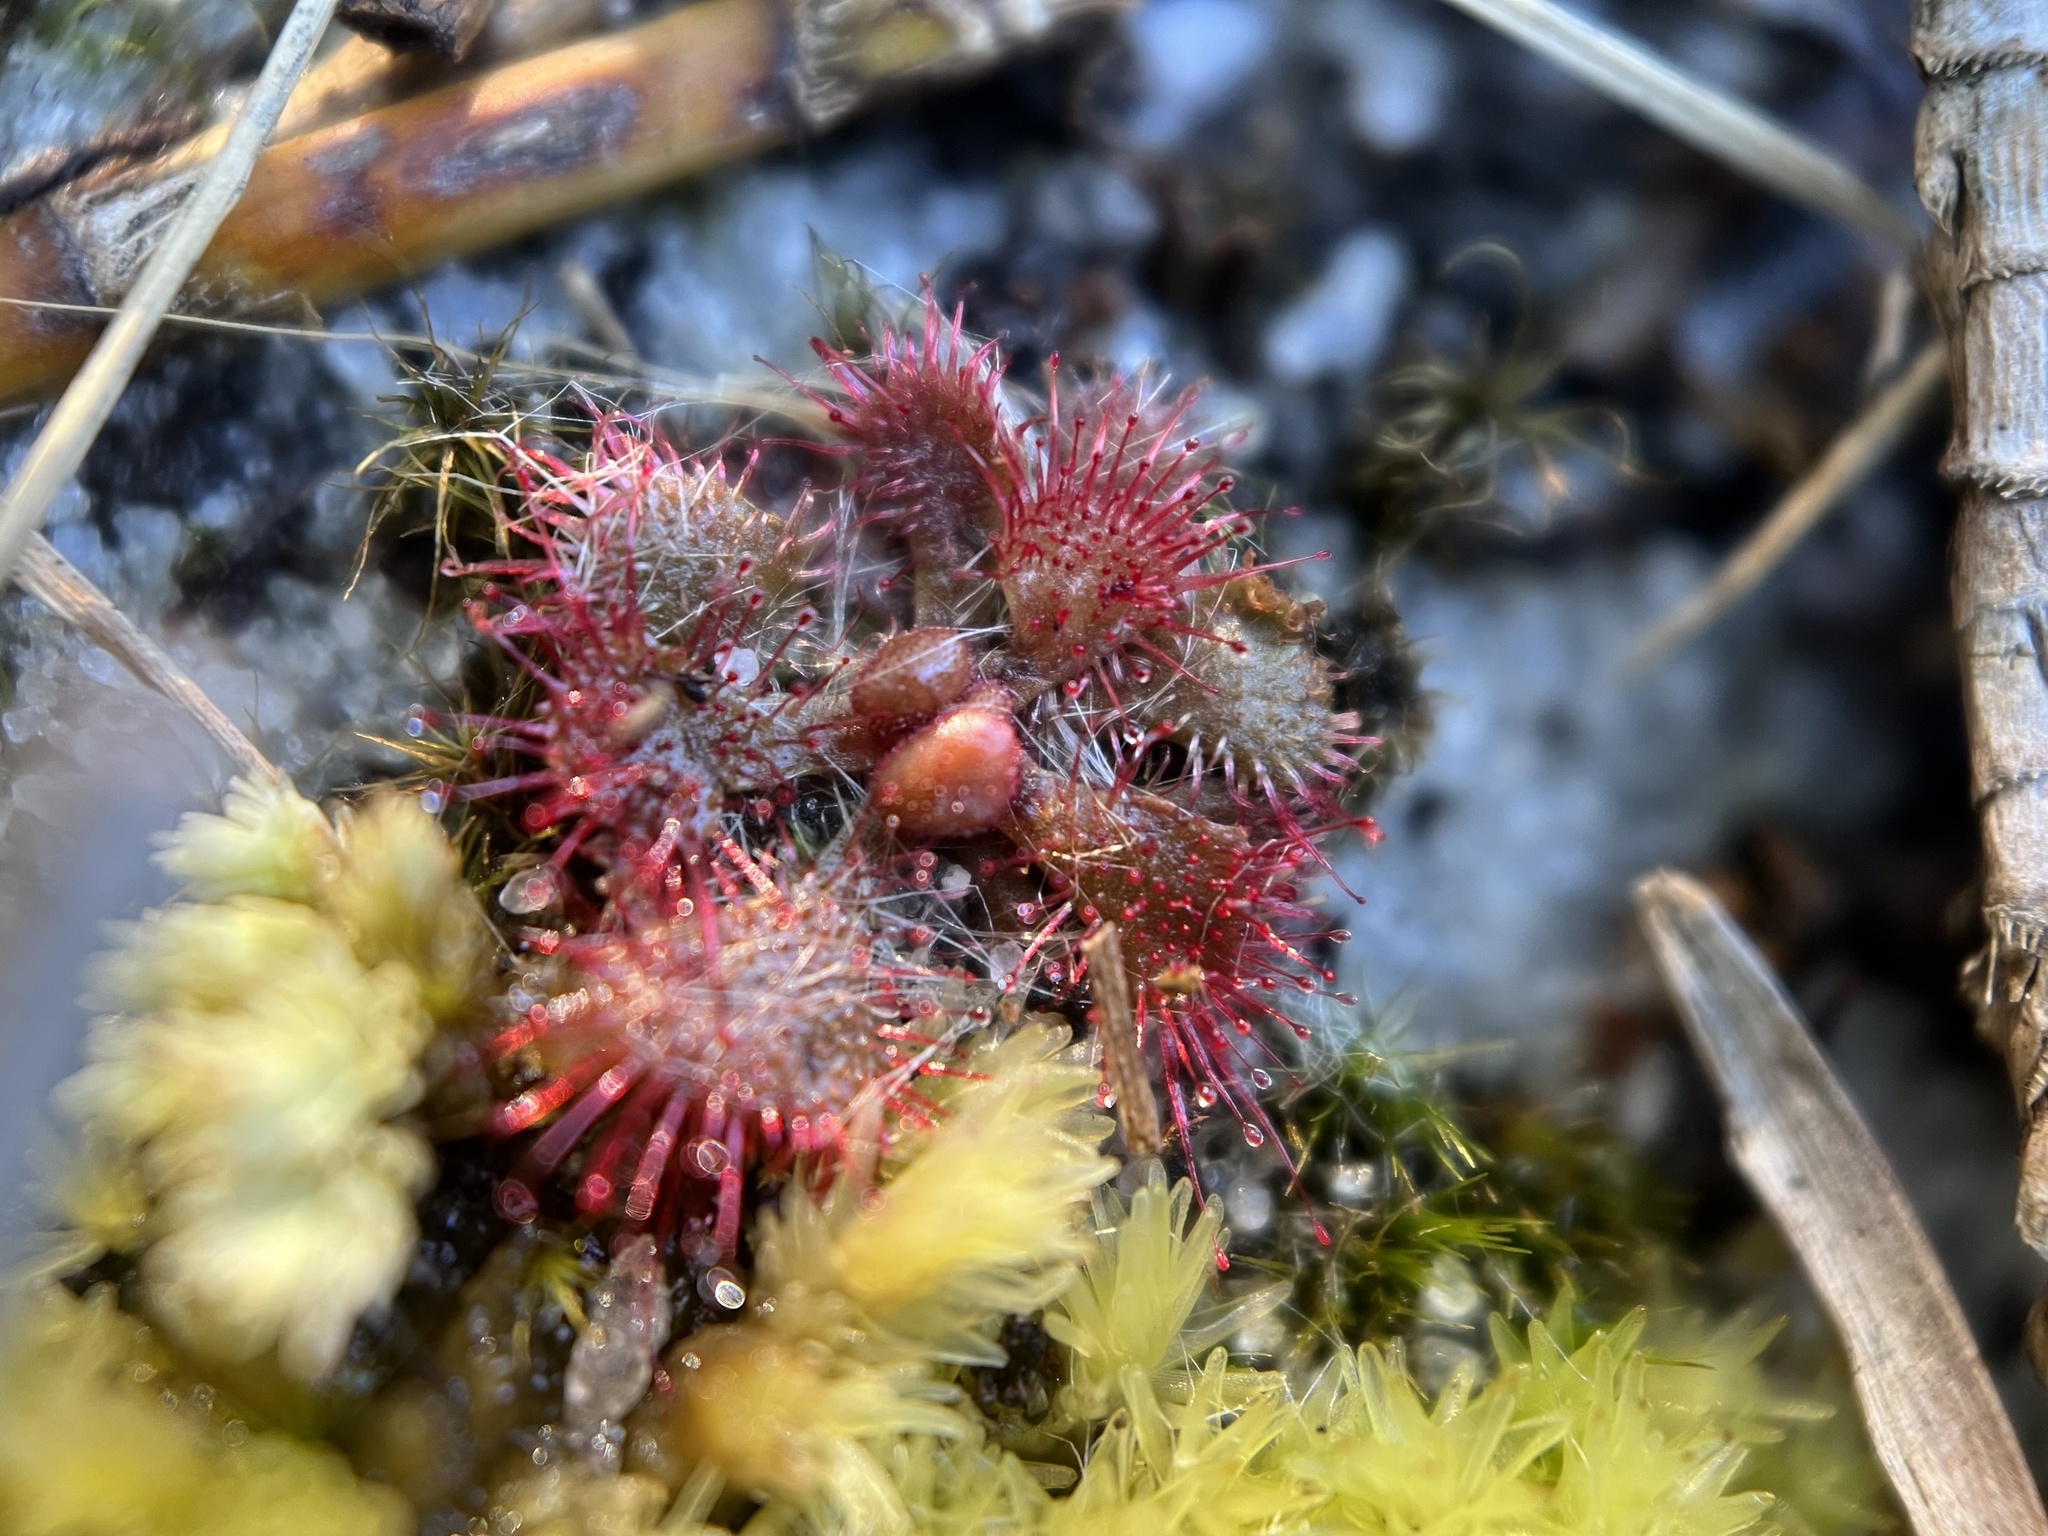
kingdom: Plantae
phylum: Tracheophyta
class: Magnoliopsida
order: Caryophyllales
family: Droseraceae
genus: Drosera
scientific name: Drosera brevifolia
